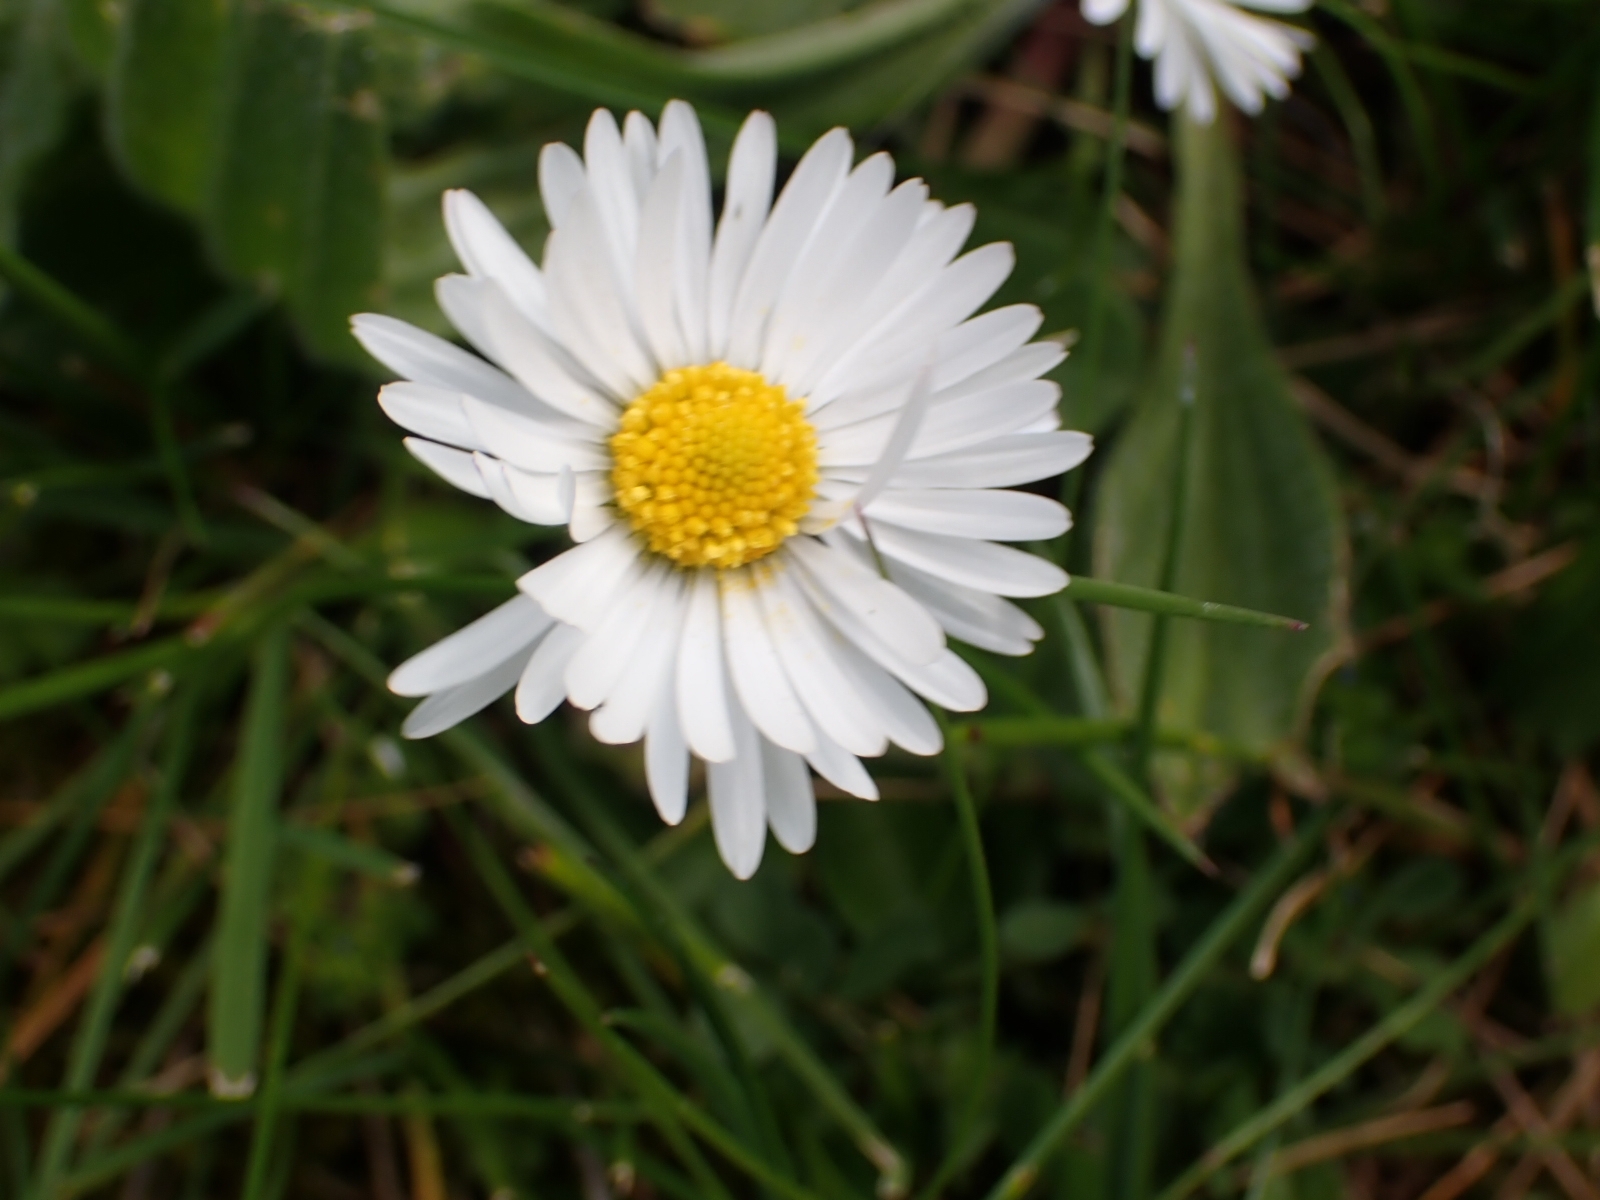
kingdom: Plantae
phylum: Tracheophyta
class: Magnoliopsida
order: Asterales
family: Asteraceae
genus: Bellis
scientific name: Bellis perennis
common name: Lawndaisy
